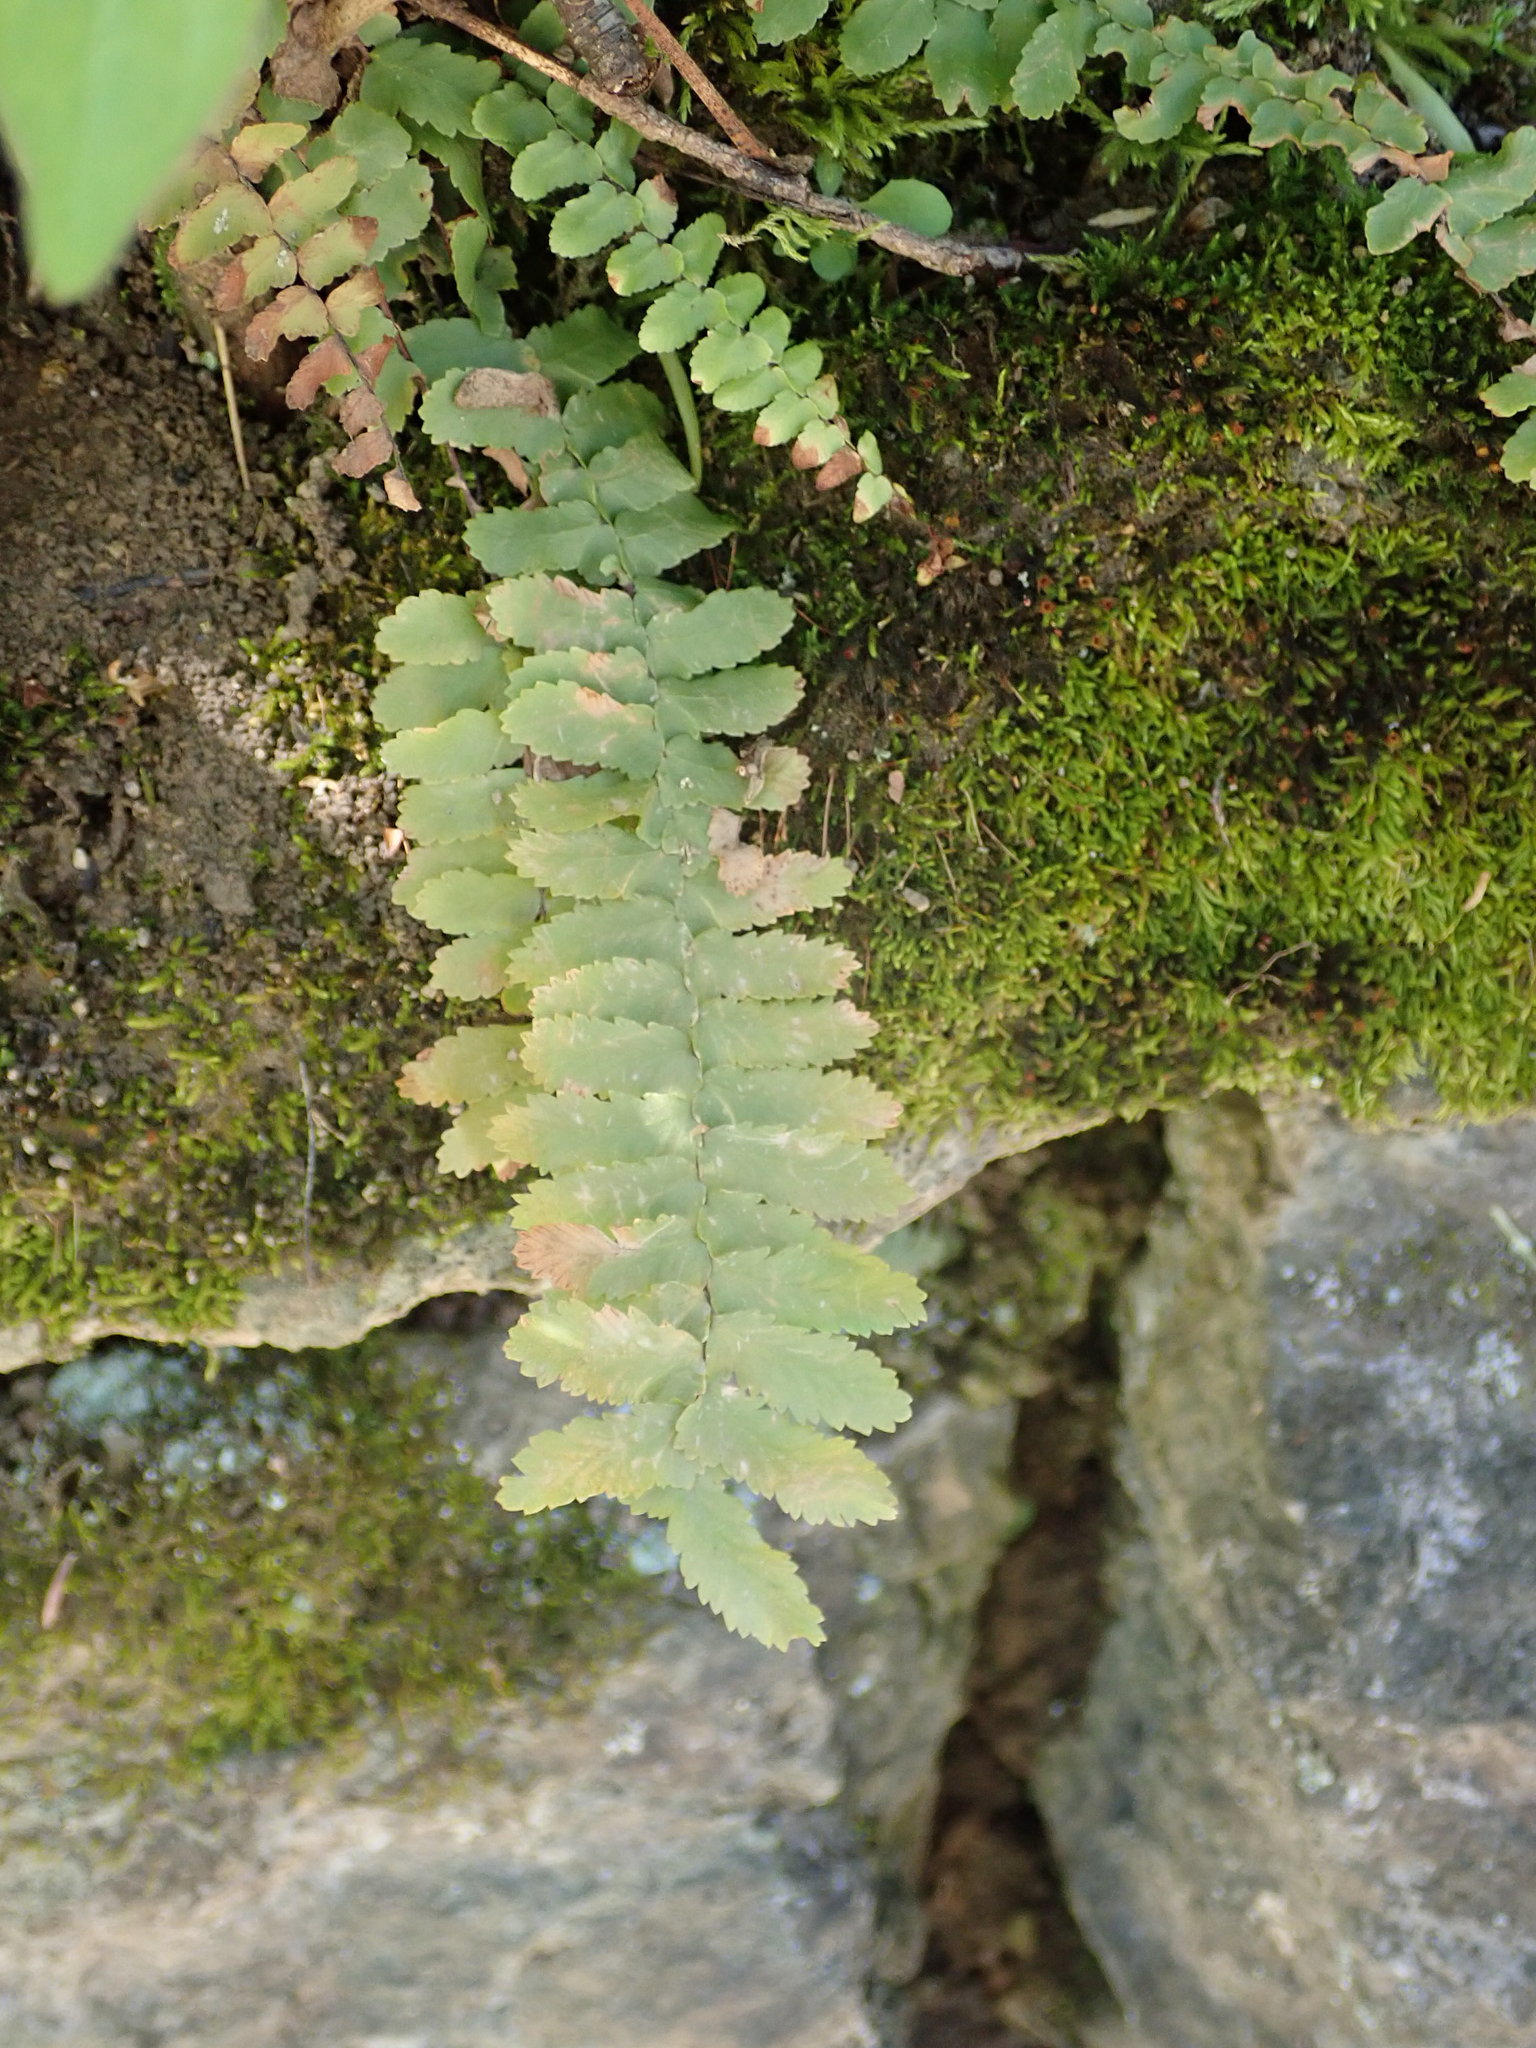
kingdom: Plantae
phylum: Tracheophyta
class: Polypodiopsida
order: Polypodiales
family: Aspleniaceae
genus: Asplenium
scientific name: Asplenium platyneuron
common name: Ebony spleenwort
